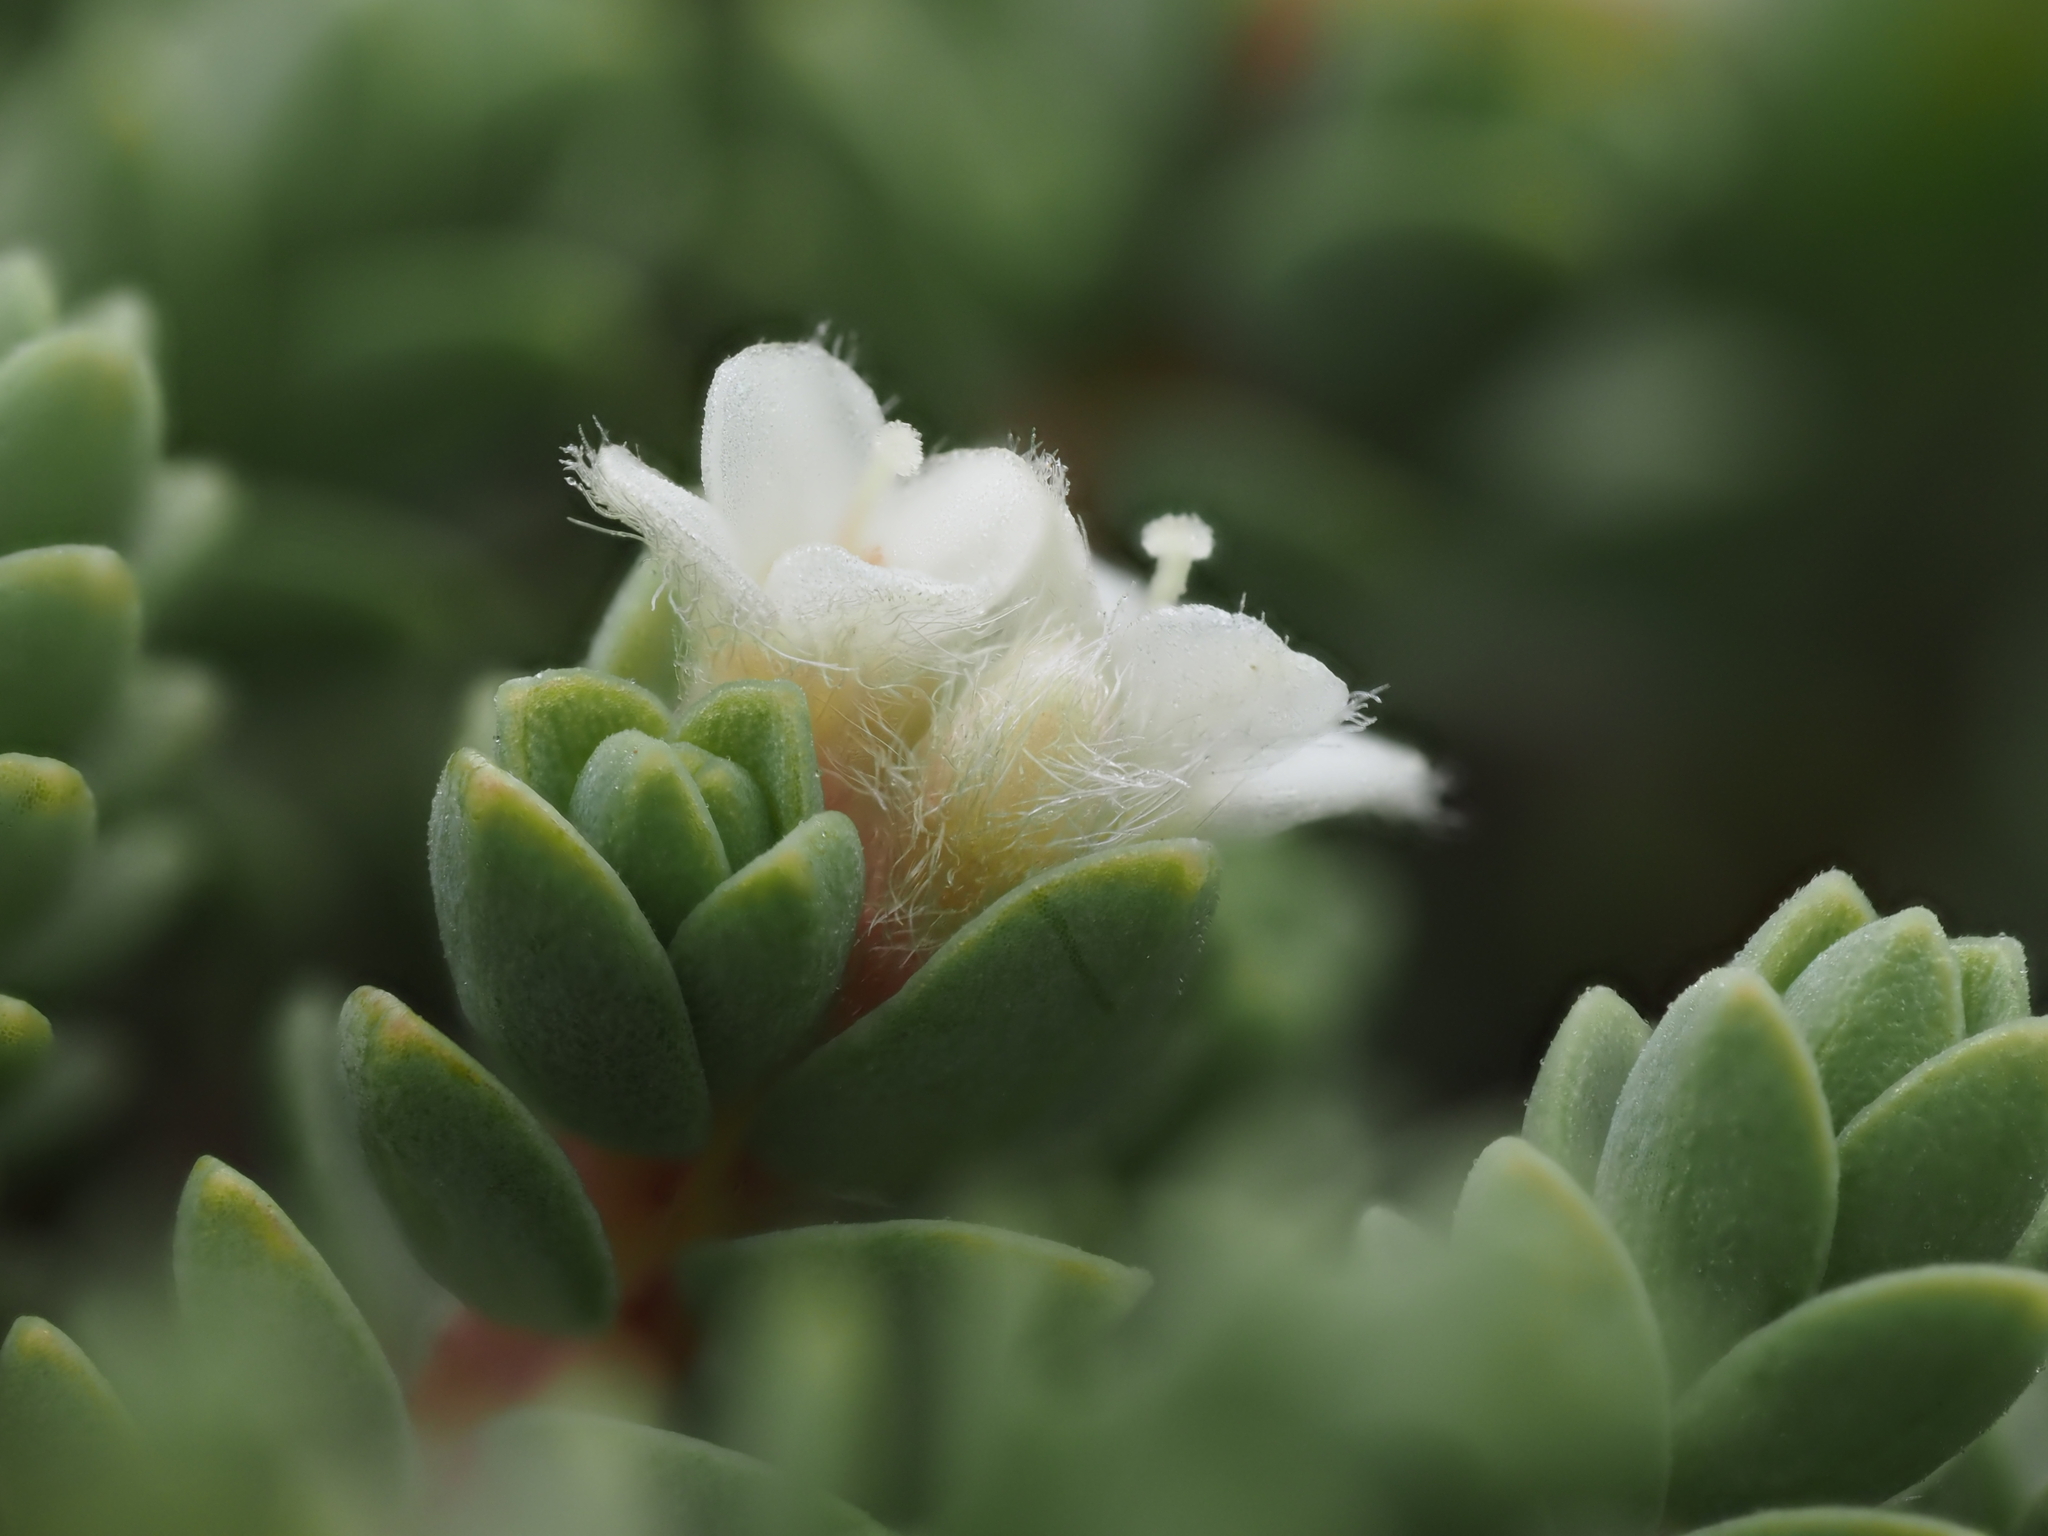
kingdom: Plantae
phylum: Tracheophyta
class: Magnoliopsida
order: Malvales
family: Thymelaeaceae
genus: Pimelea
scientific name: Pimelea carnosa
